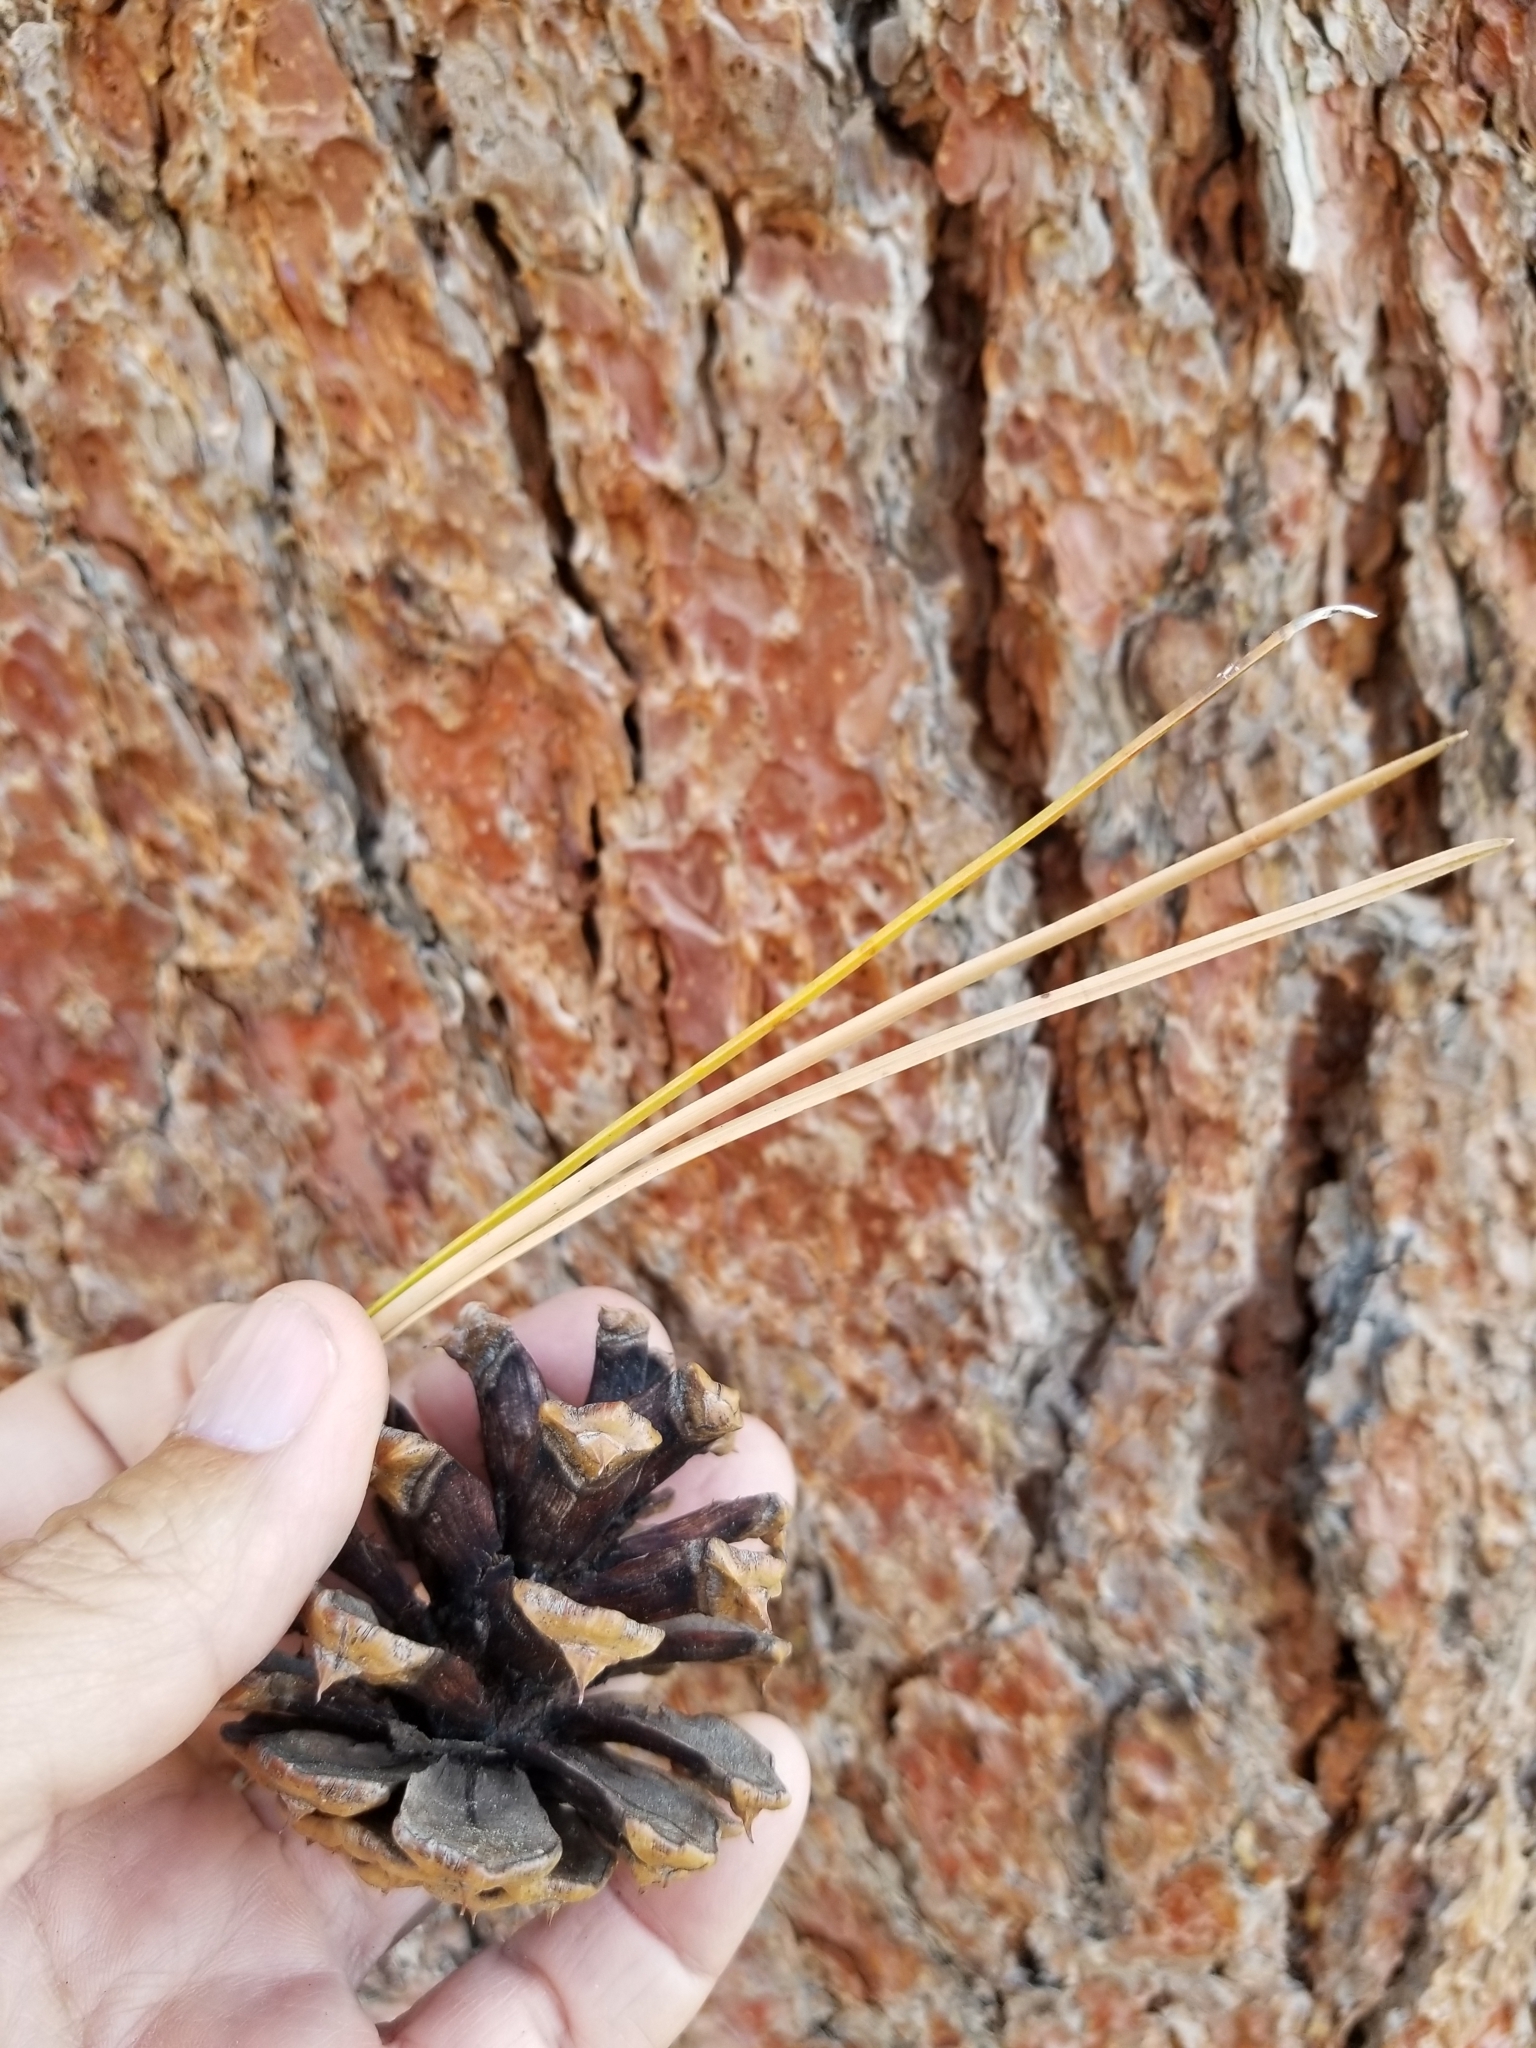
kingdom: Plantae
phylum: Tracheophyta
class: Pinopsida
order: Pinales
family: Pinaceae
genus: Pinus
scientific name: Pinus ponderosa
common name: Western yellow-pine
